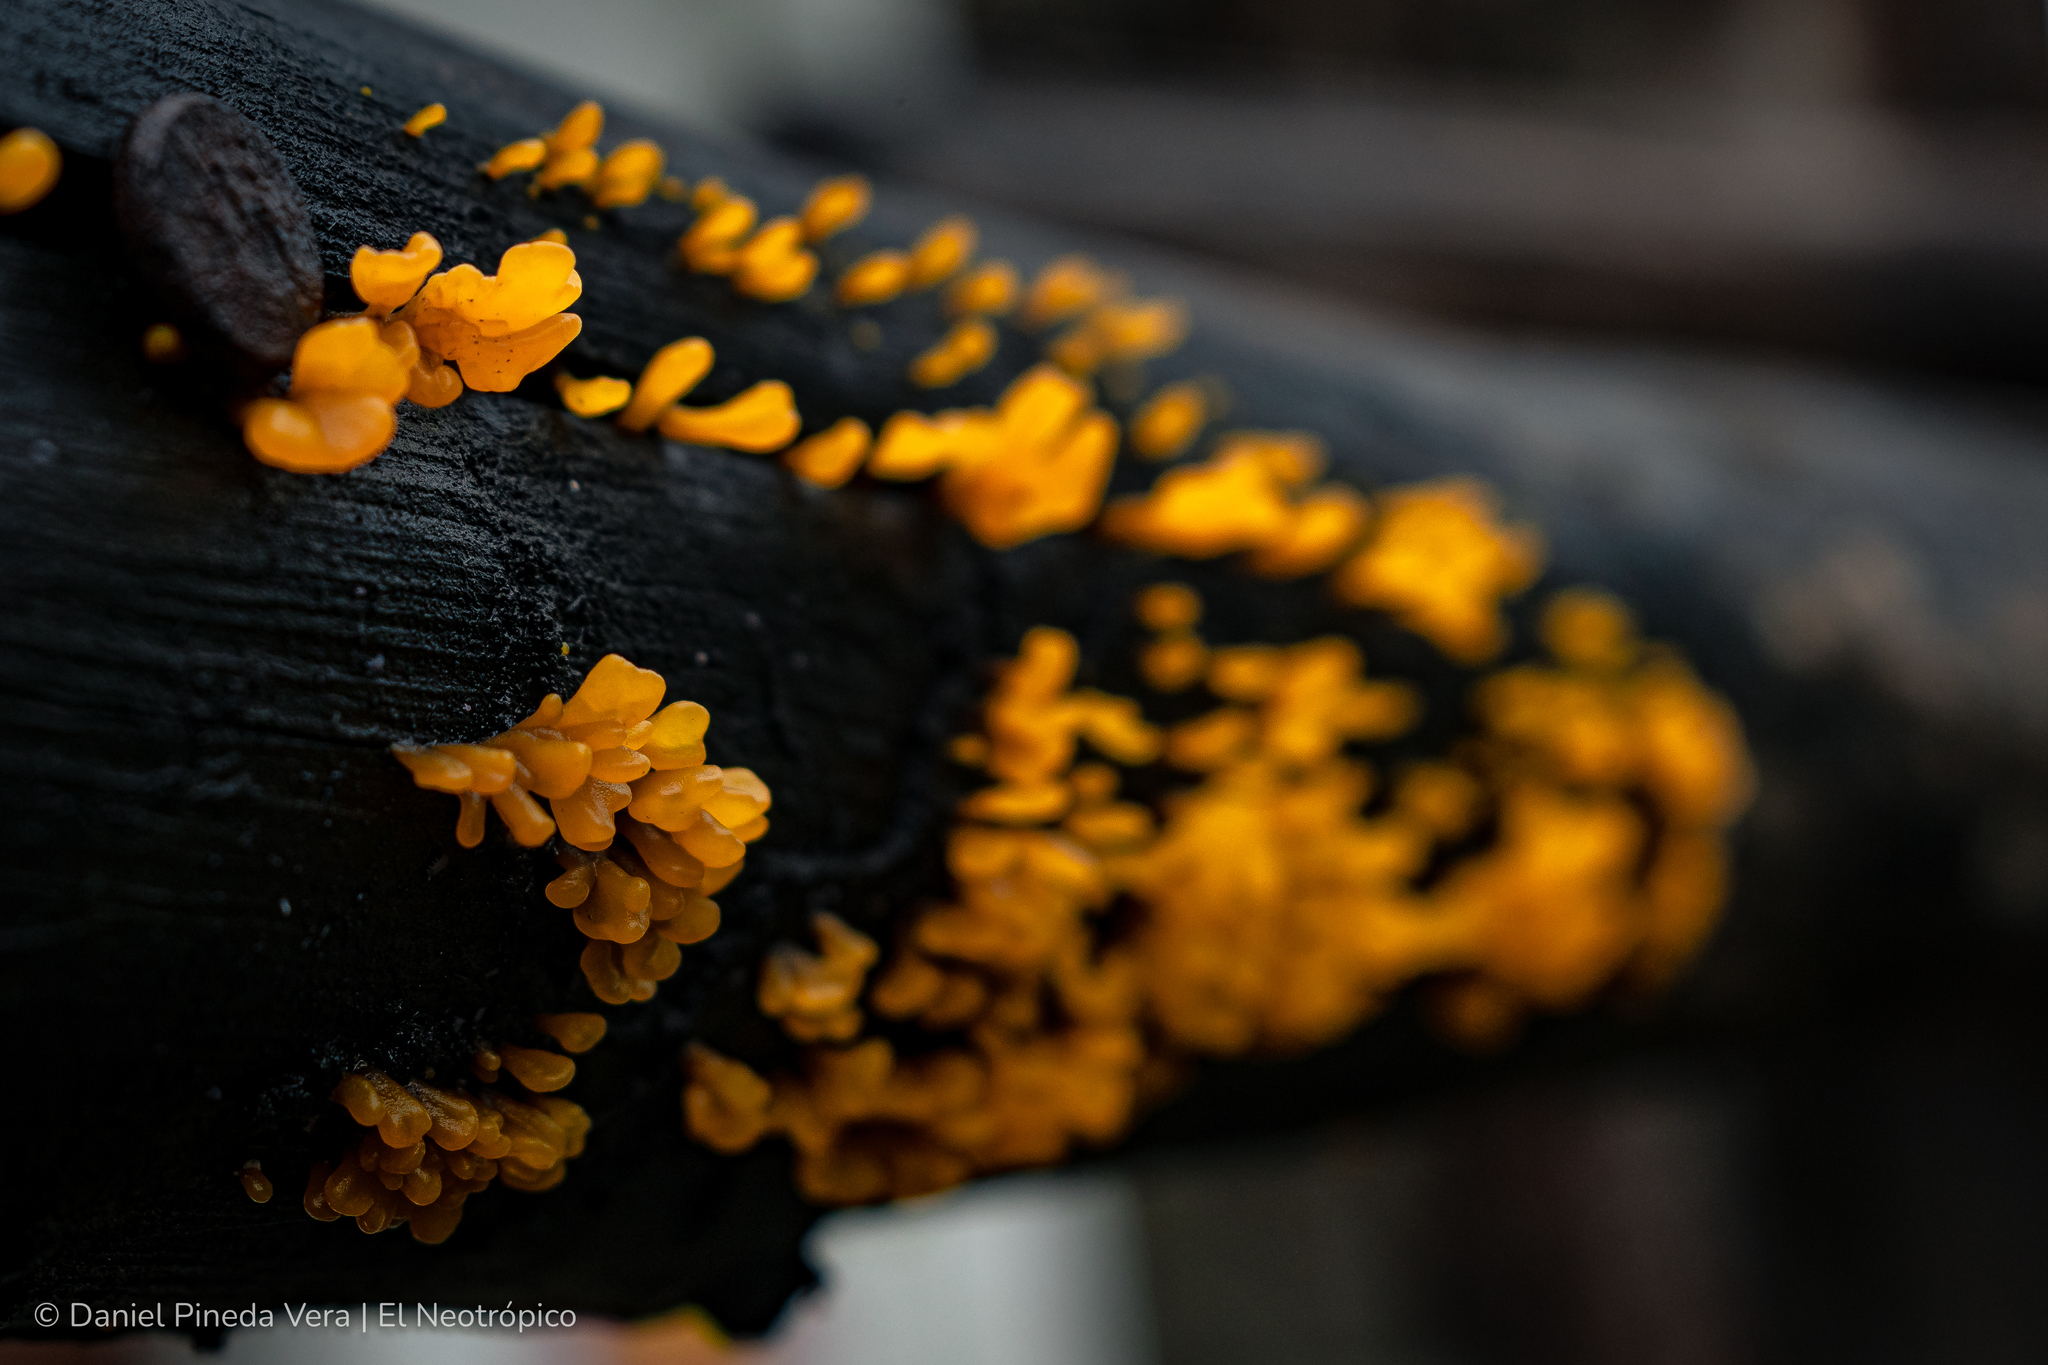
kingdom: Fungi
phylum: Basidiomycota
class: Dacrymycetes
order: Dacrymycetales
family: Dacrymycetaceae
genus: Dacrymyces
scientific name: Dacrymyces spathularius
